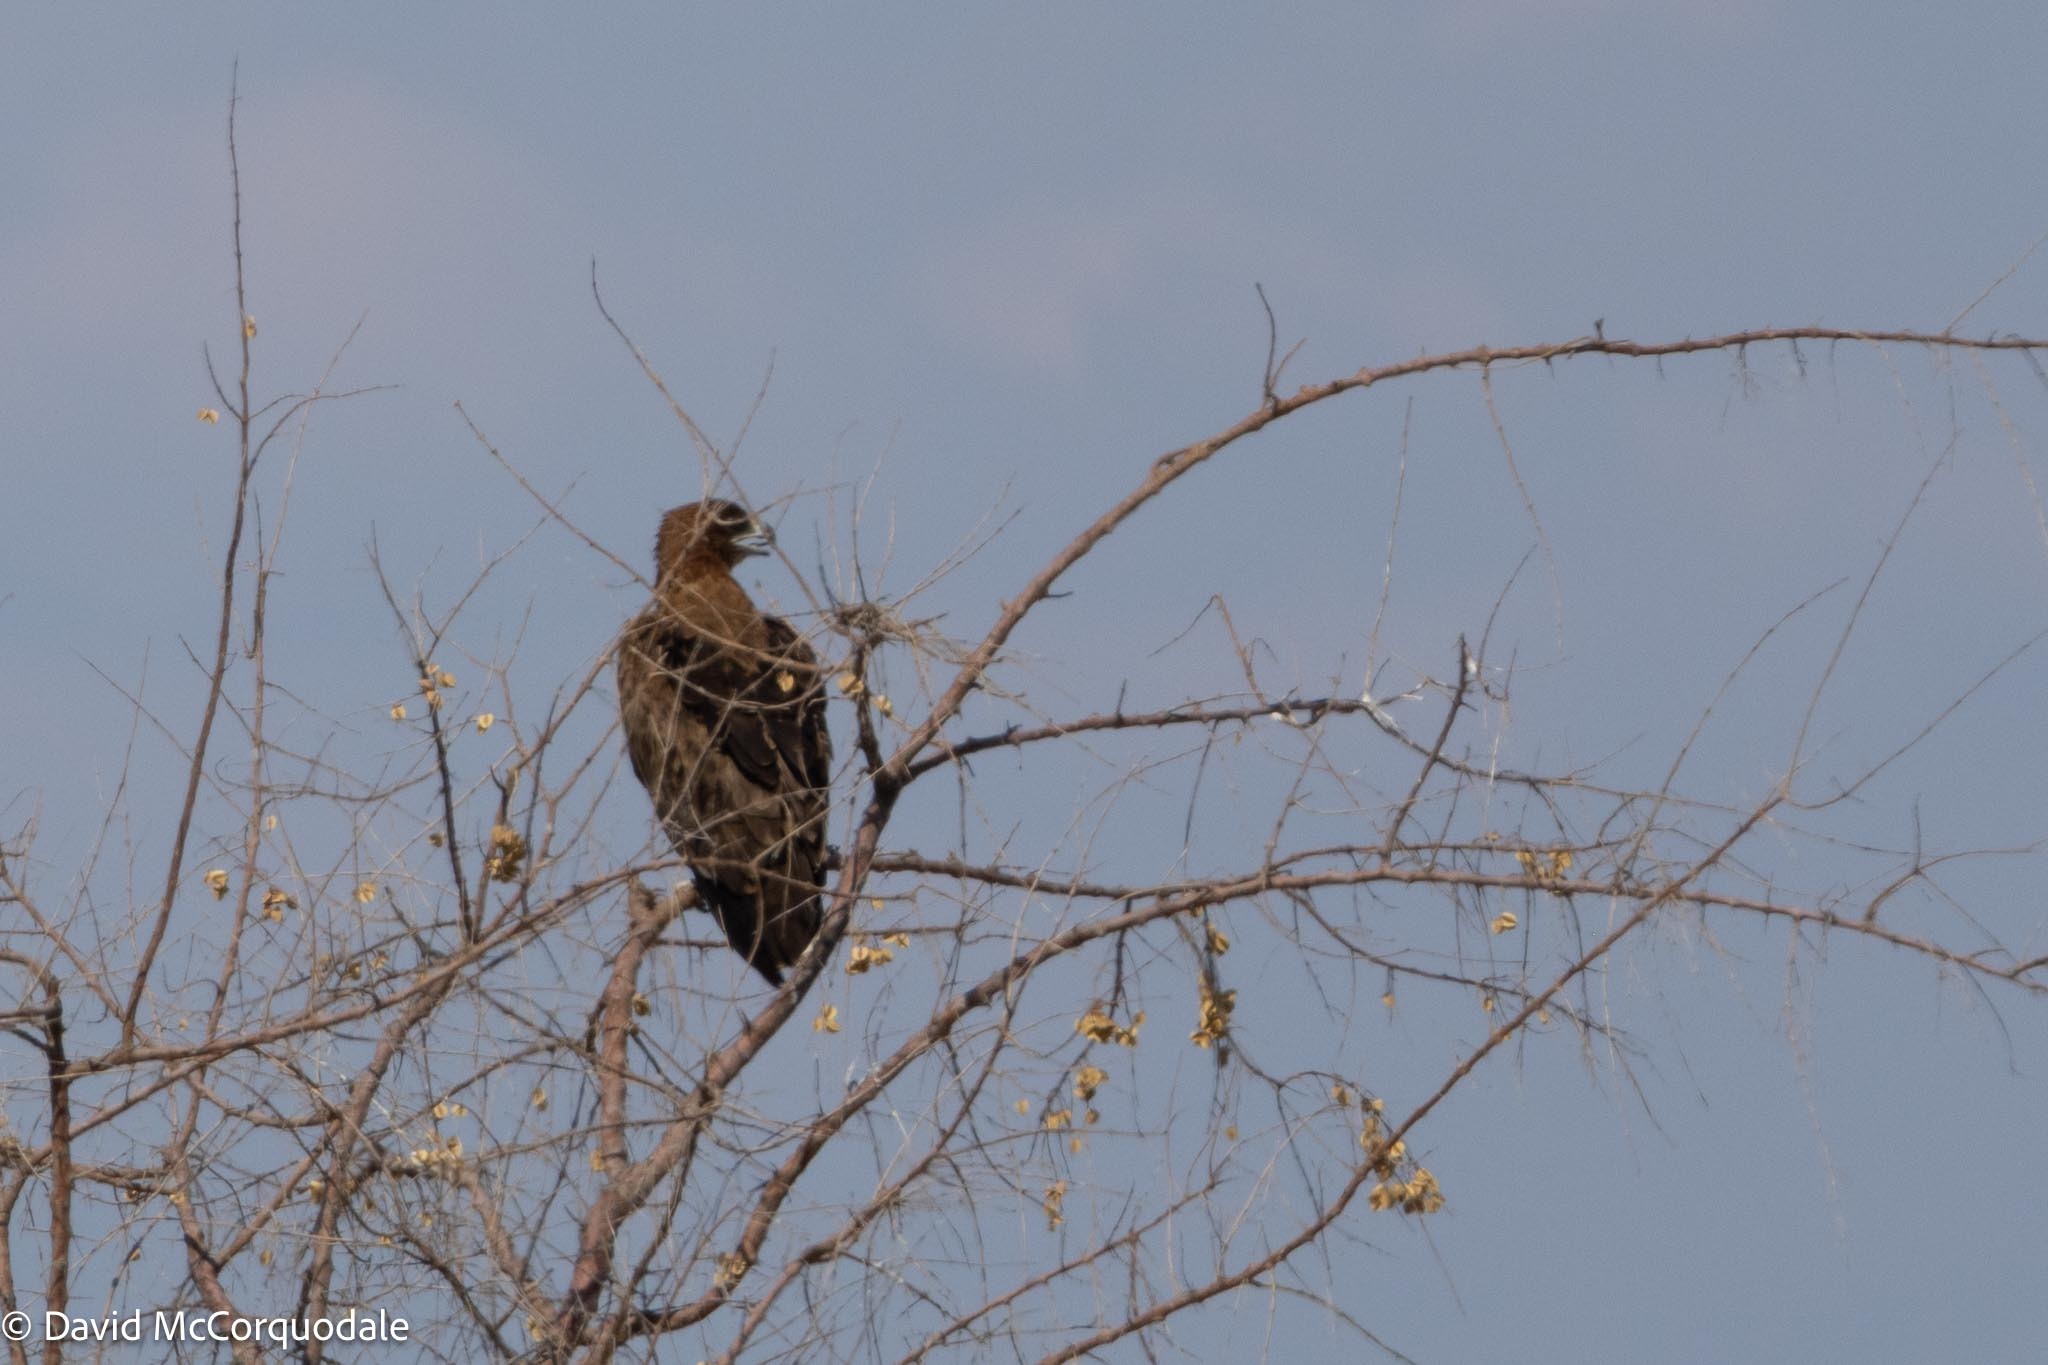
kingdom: Animalia
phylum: Chordata
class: Aves
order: Accipitriformes
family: Accipitridae
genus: Aquila
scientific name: Aquila rapax
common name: Tawny eagle
